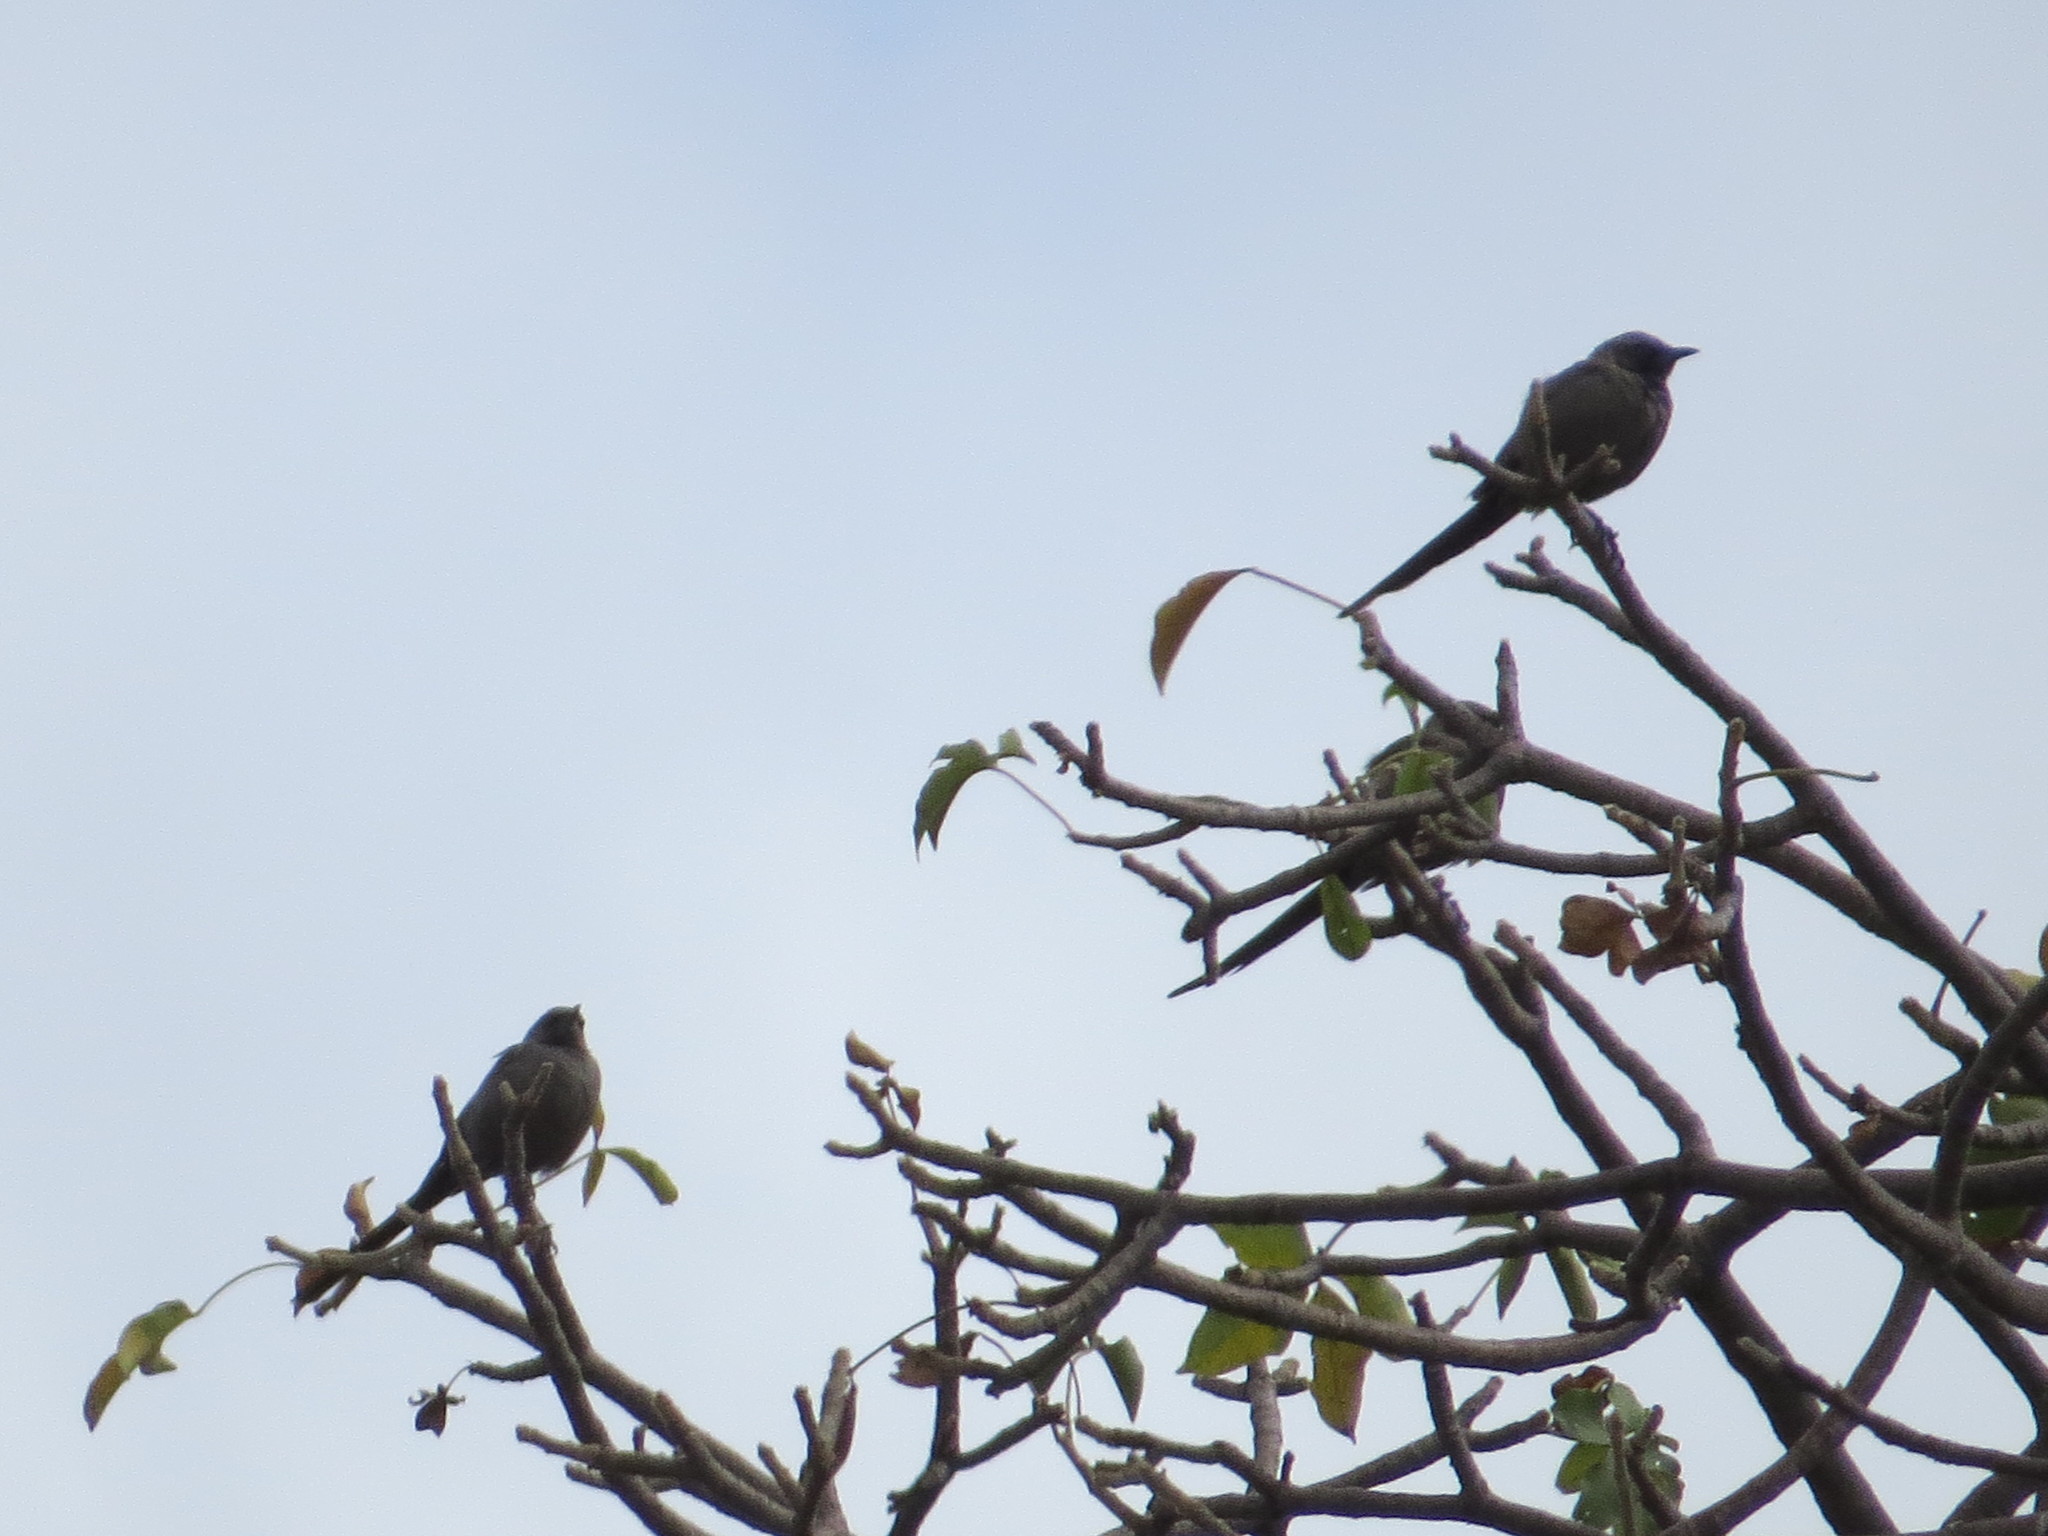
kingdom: Animalia
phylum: Chordata
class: Aves
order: Passeriformes
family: Sturnidae
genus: Lamprotornis
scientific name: Lamprotornis unicolor
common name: Ashy starling
